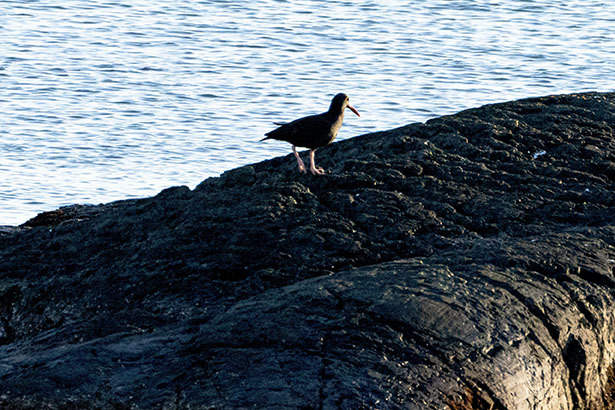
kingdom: Animalia
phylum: Chordata
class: Aves
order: Charadriiformes
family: Haematopodidae
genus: Haematopus
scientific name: Haematopus bachmani
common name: Black oystercatcher
